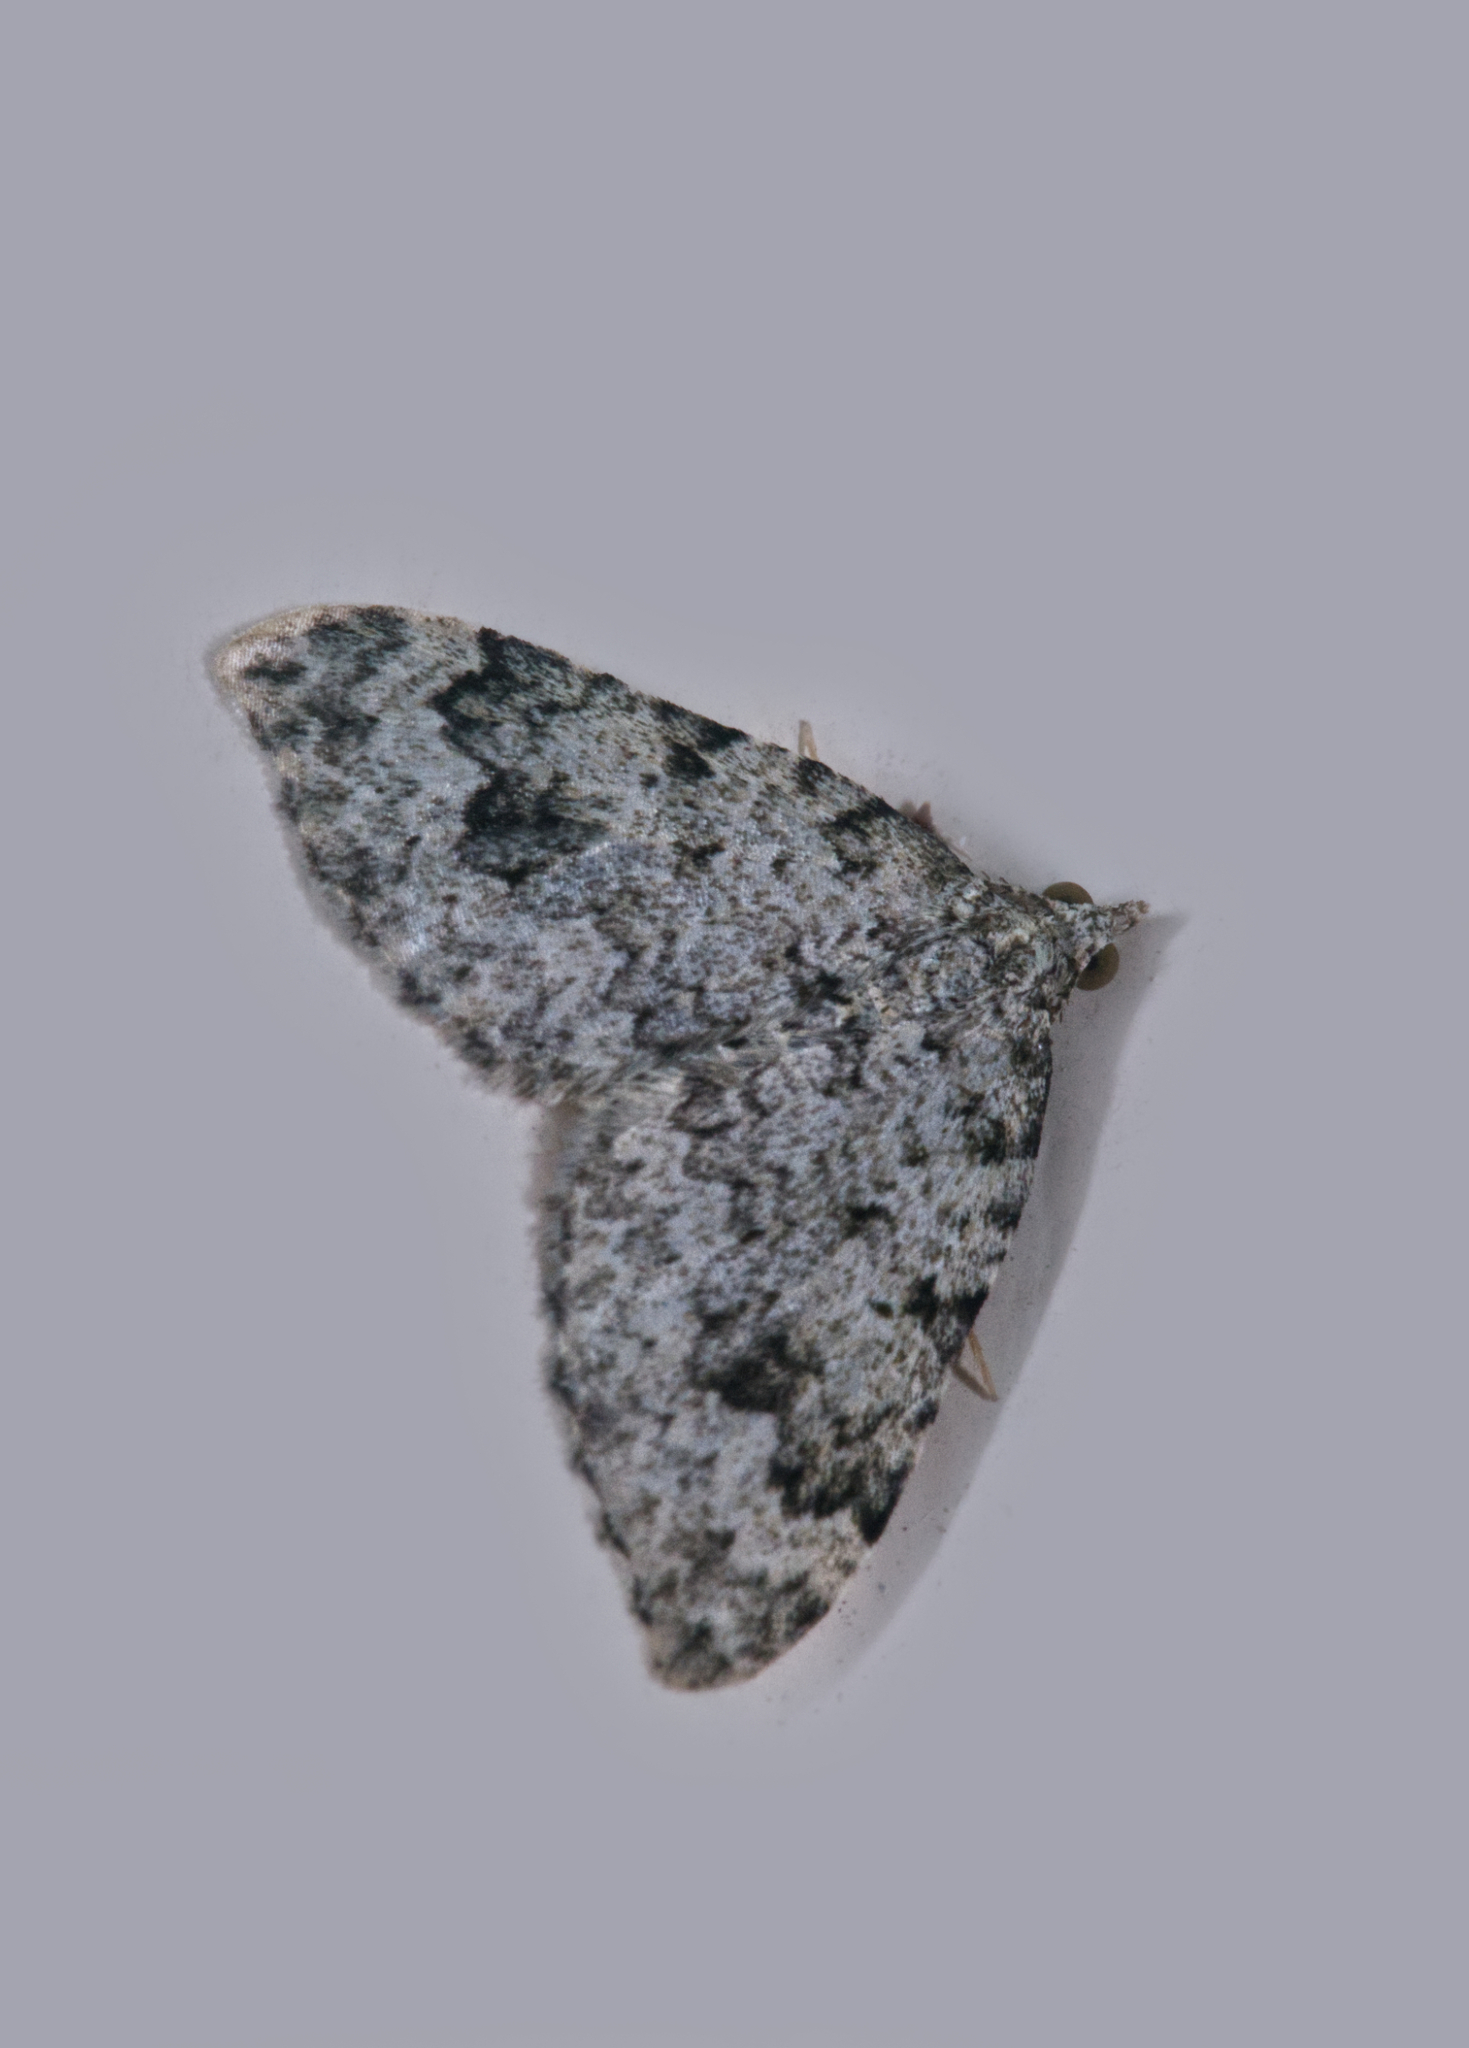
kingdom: Animalia
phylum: Arthropoda
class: Insecta
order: Lepidoptera
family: Geometridae
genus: Helastia
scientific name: Helastia cinerearia
